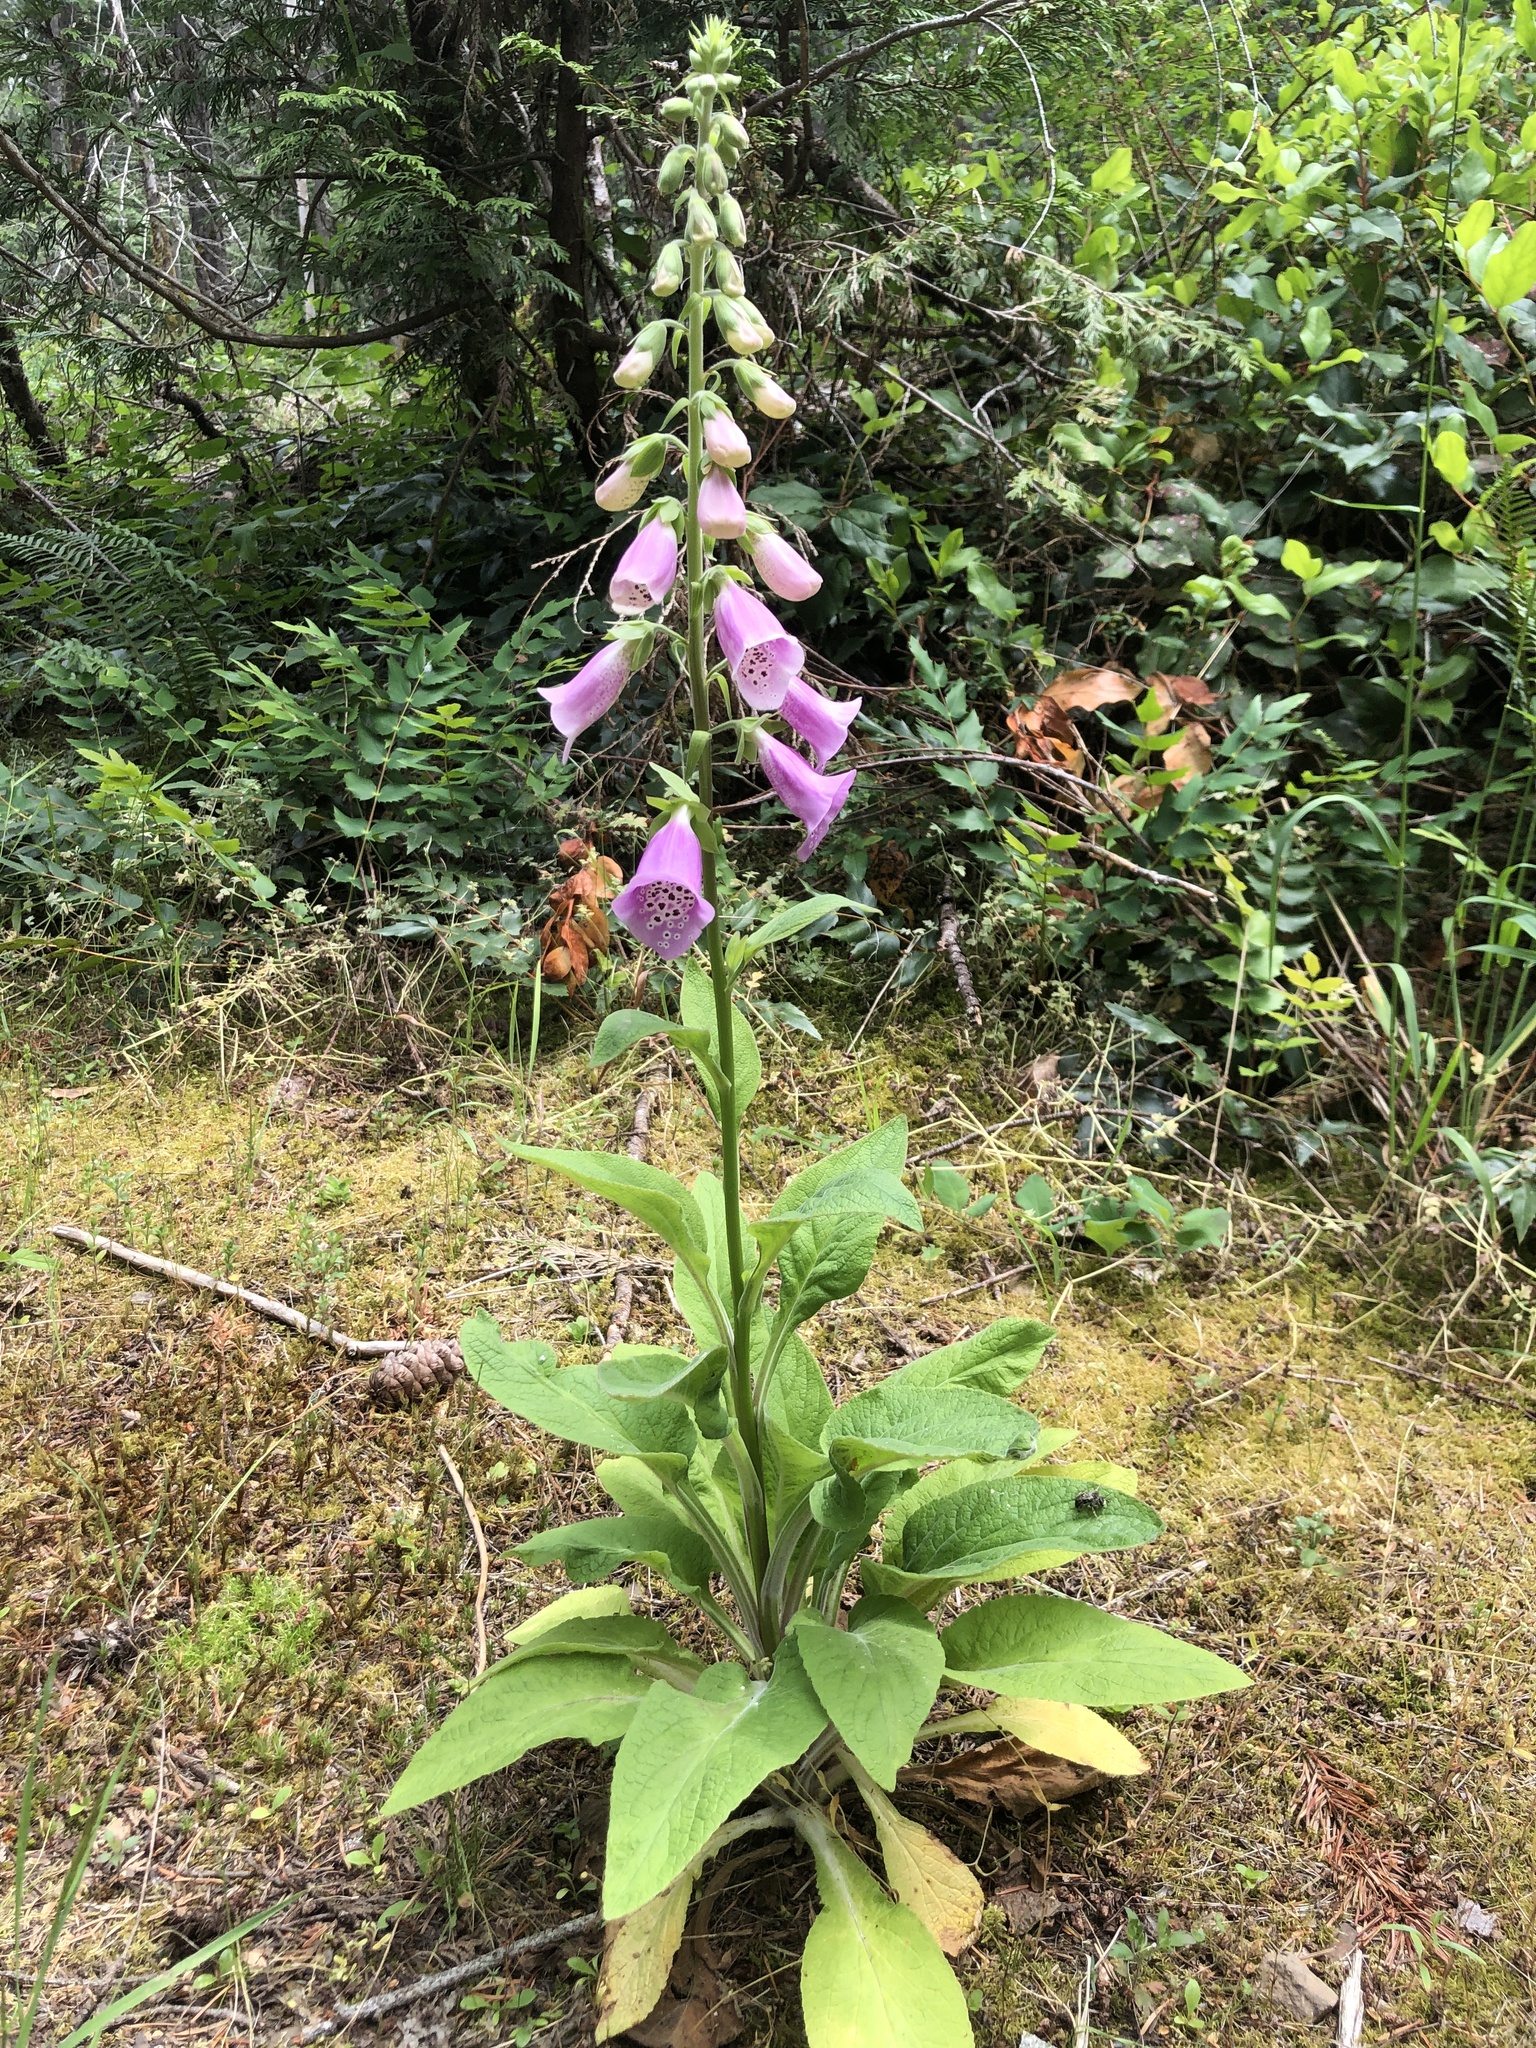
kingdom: Plantae
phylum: Tracheophyta
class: Magnoliopsida
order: Lamiales
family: Plantaginaceae
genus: Digitalis
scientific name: Digitalis purpurea
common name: Foxglove
